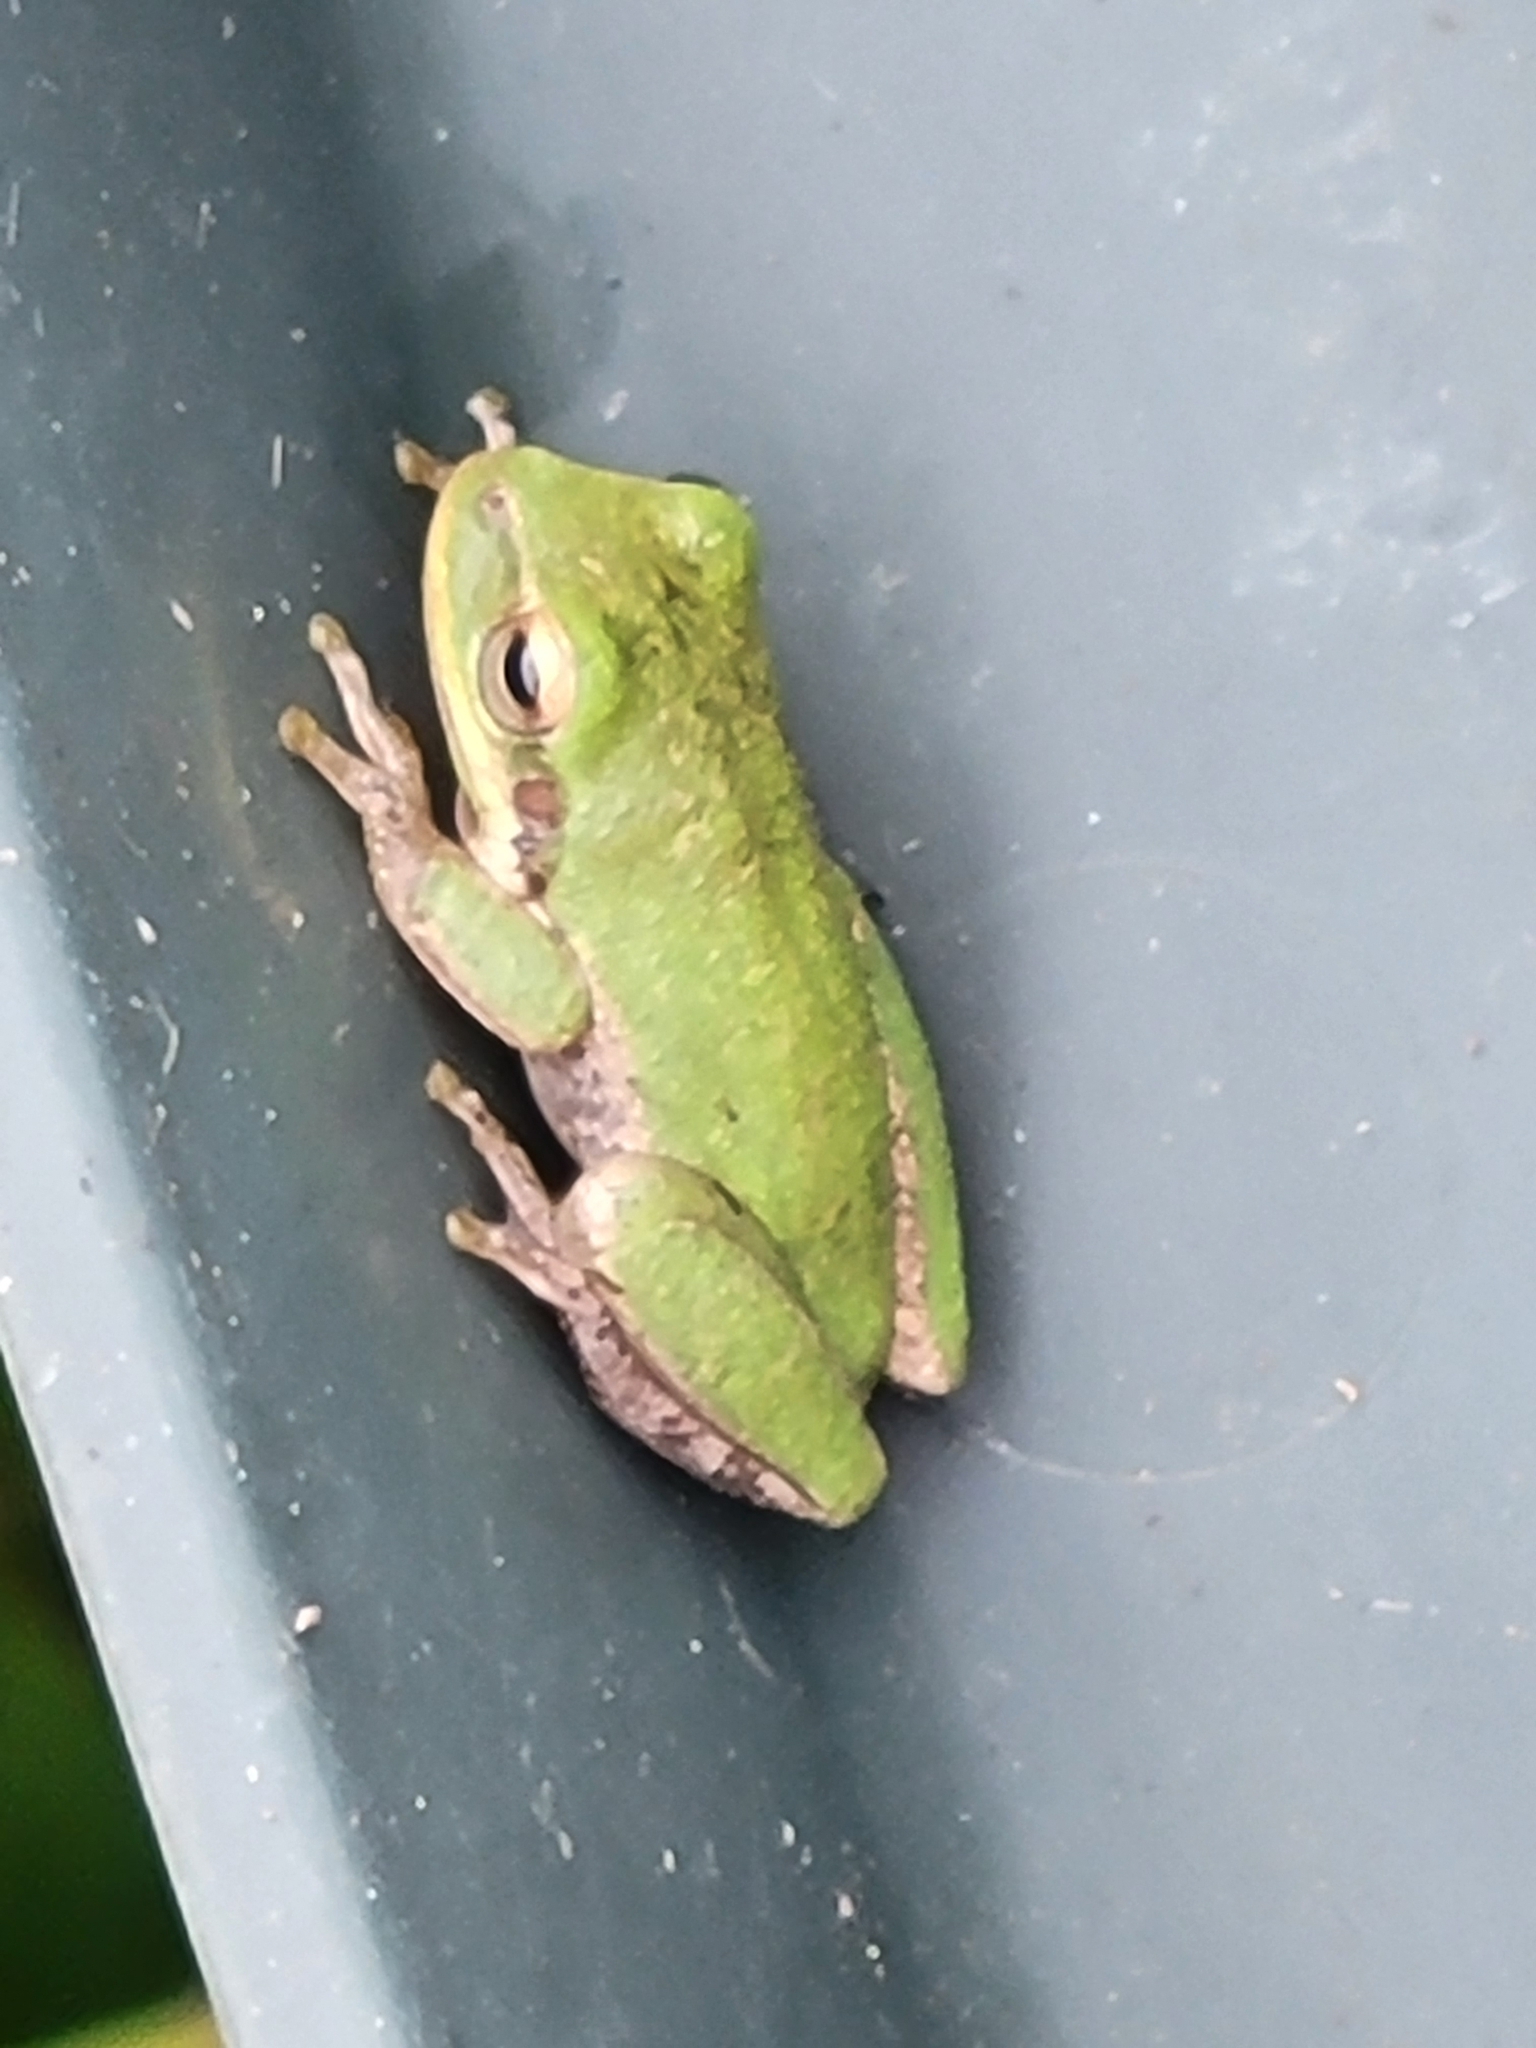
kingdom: Animalia
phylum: Chordata
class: Amphibia
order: Anura
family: Hylidae
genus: Dryophytes
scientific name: Dryophytes squirellus
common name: Squirrel treefrog
